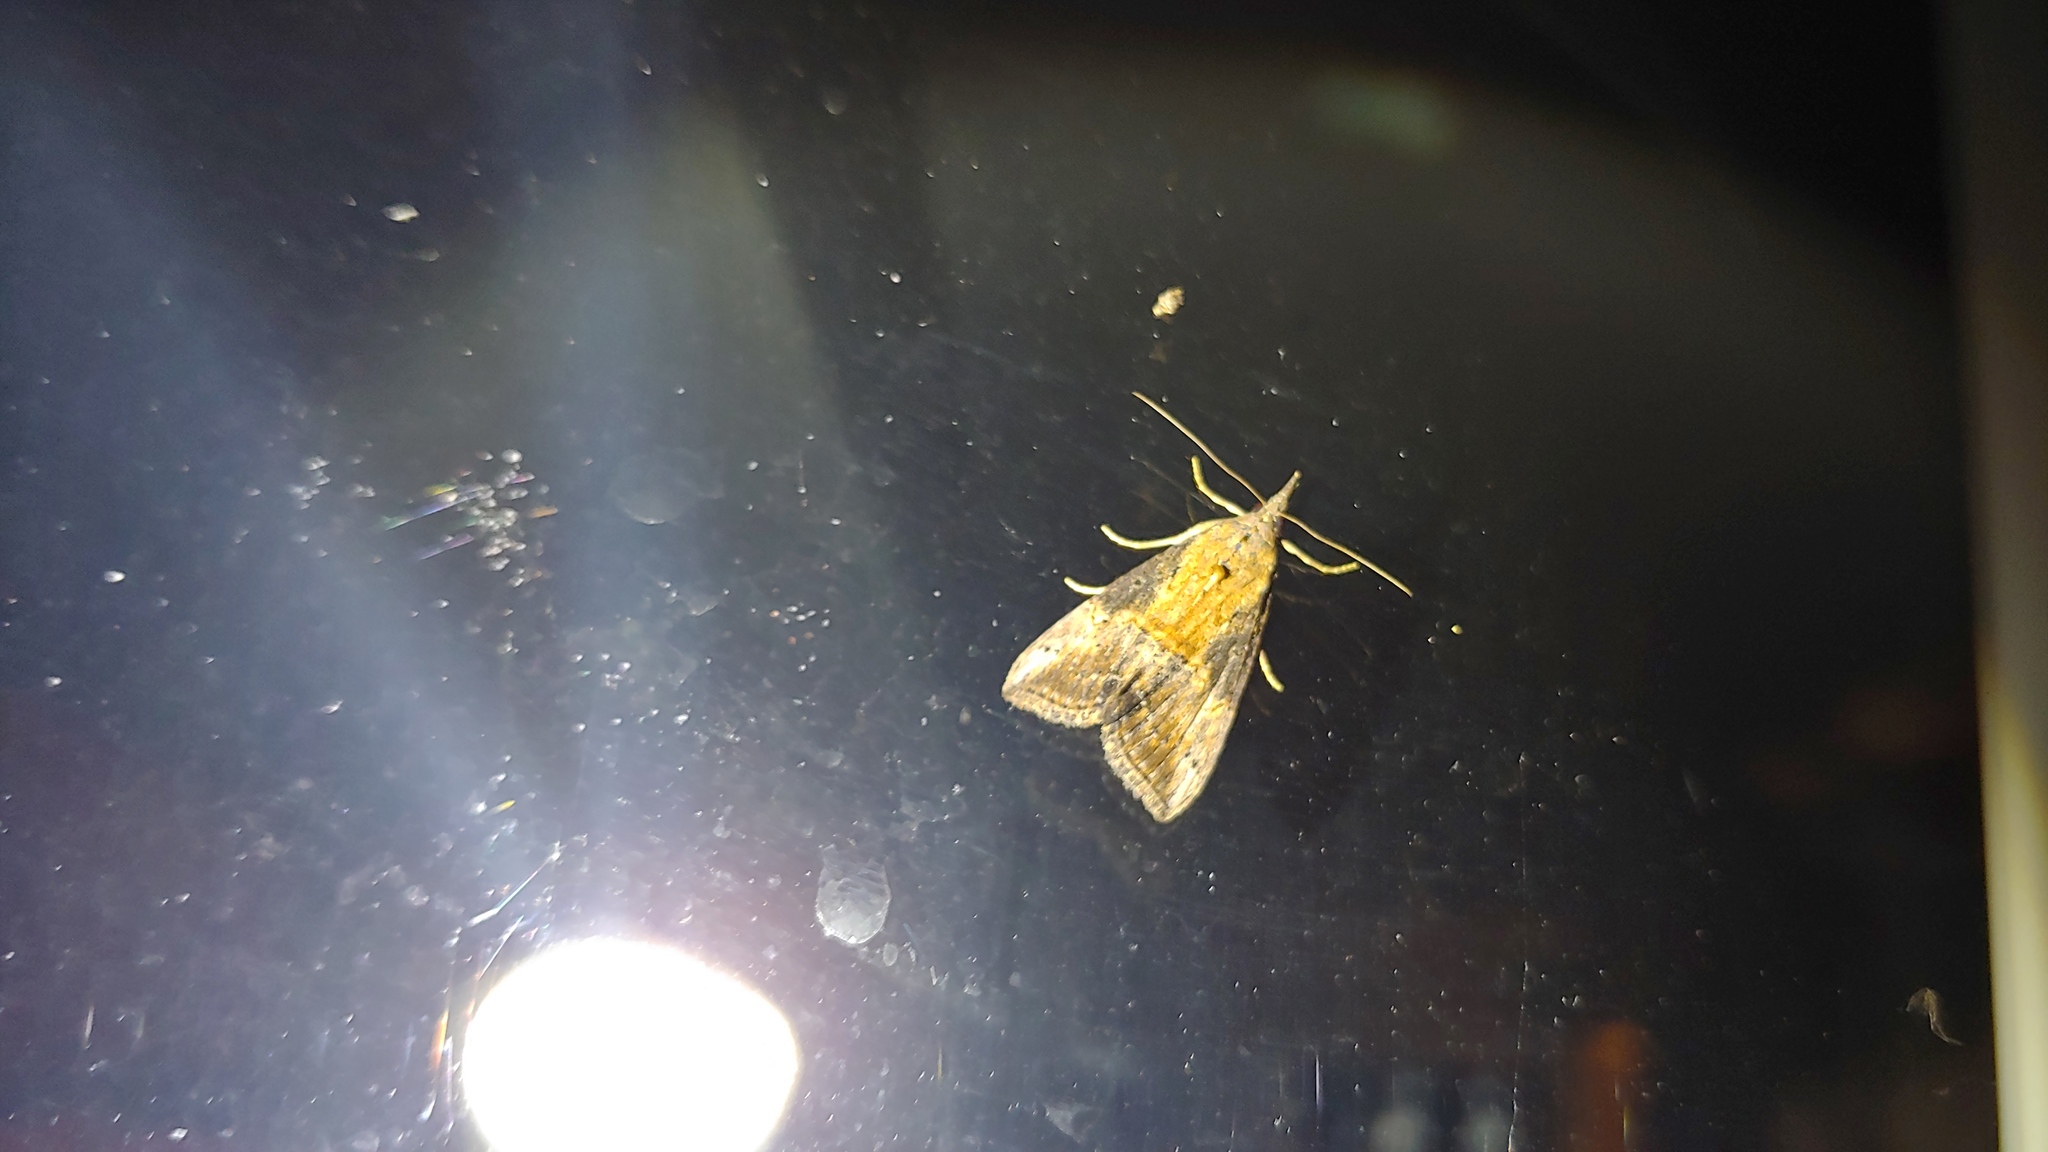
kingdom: Animalia
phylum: Arthropoda
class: Insecta
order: Lepidoptera
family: Erebidae
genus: Hypena
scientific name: Hypena scabra
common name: Green cloverworm
